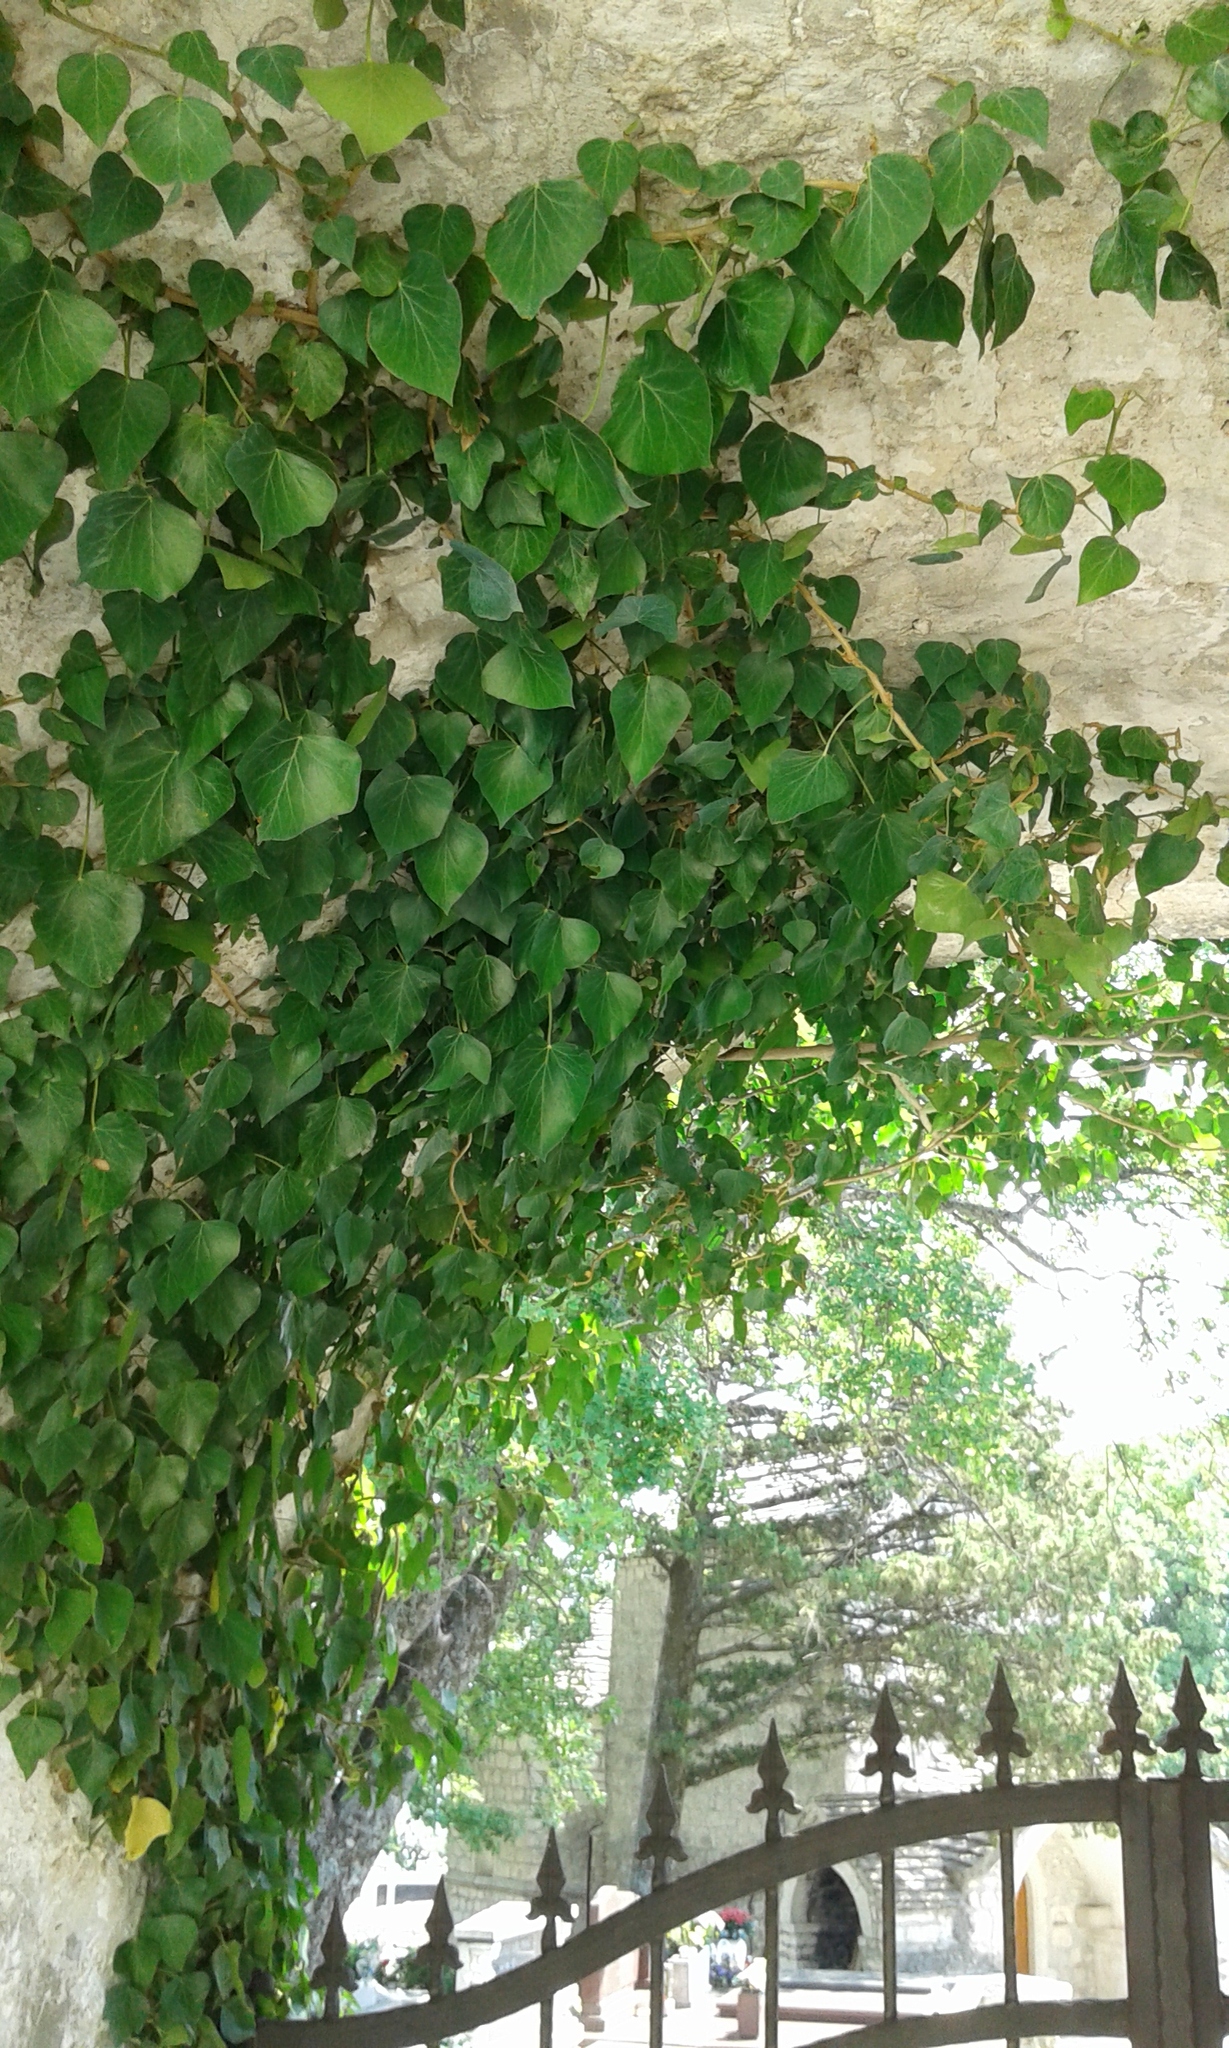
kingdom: Plantae
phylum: Tracheophyta
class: Magnoliopsida
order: Apiales
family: Araliaceae
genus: Hedera
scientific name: Hedera helix
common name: Ivy
